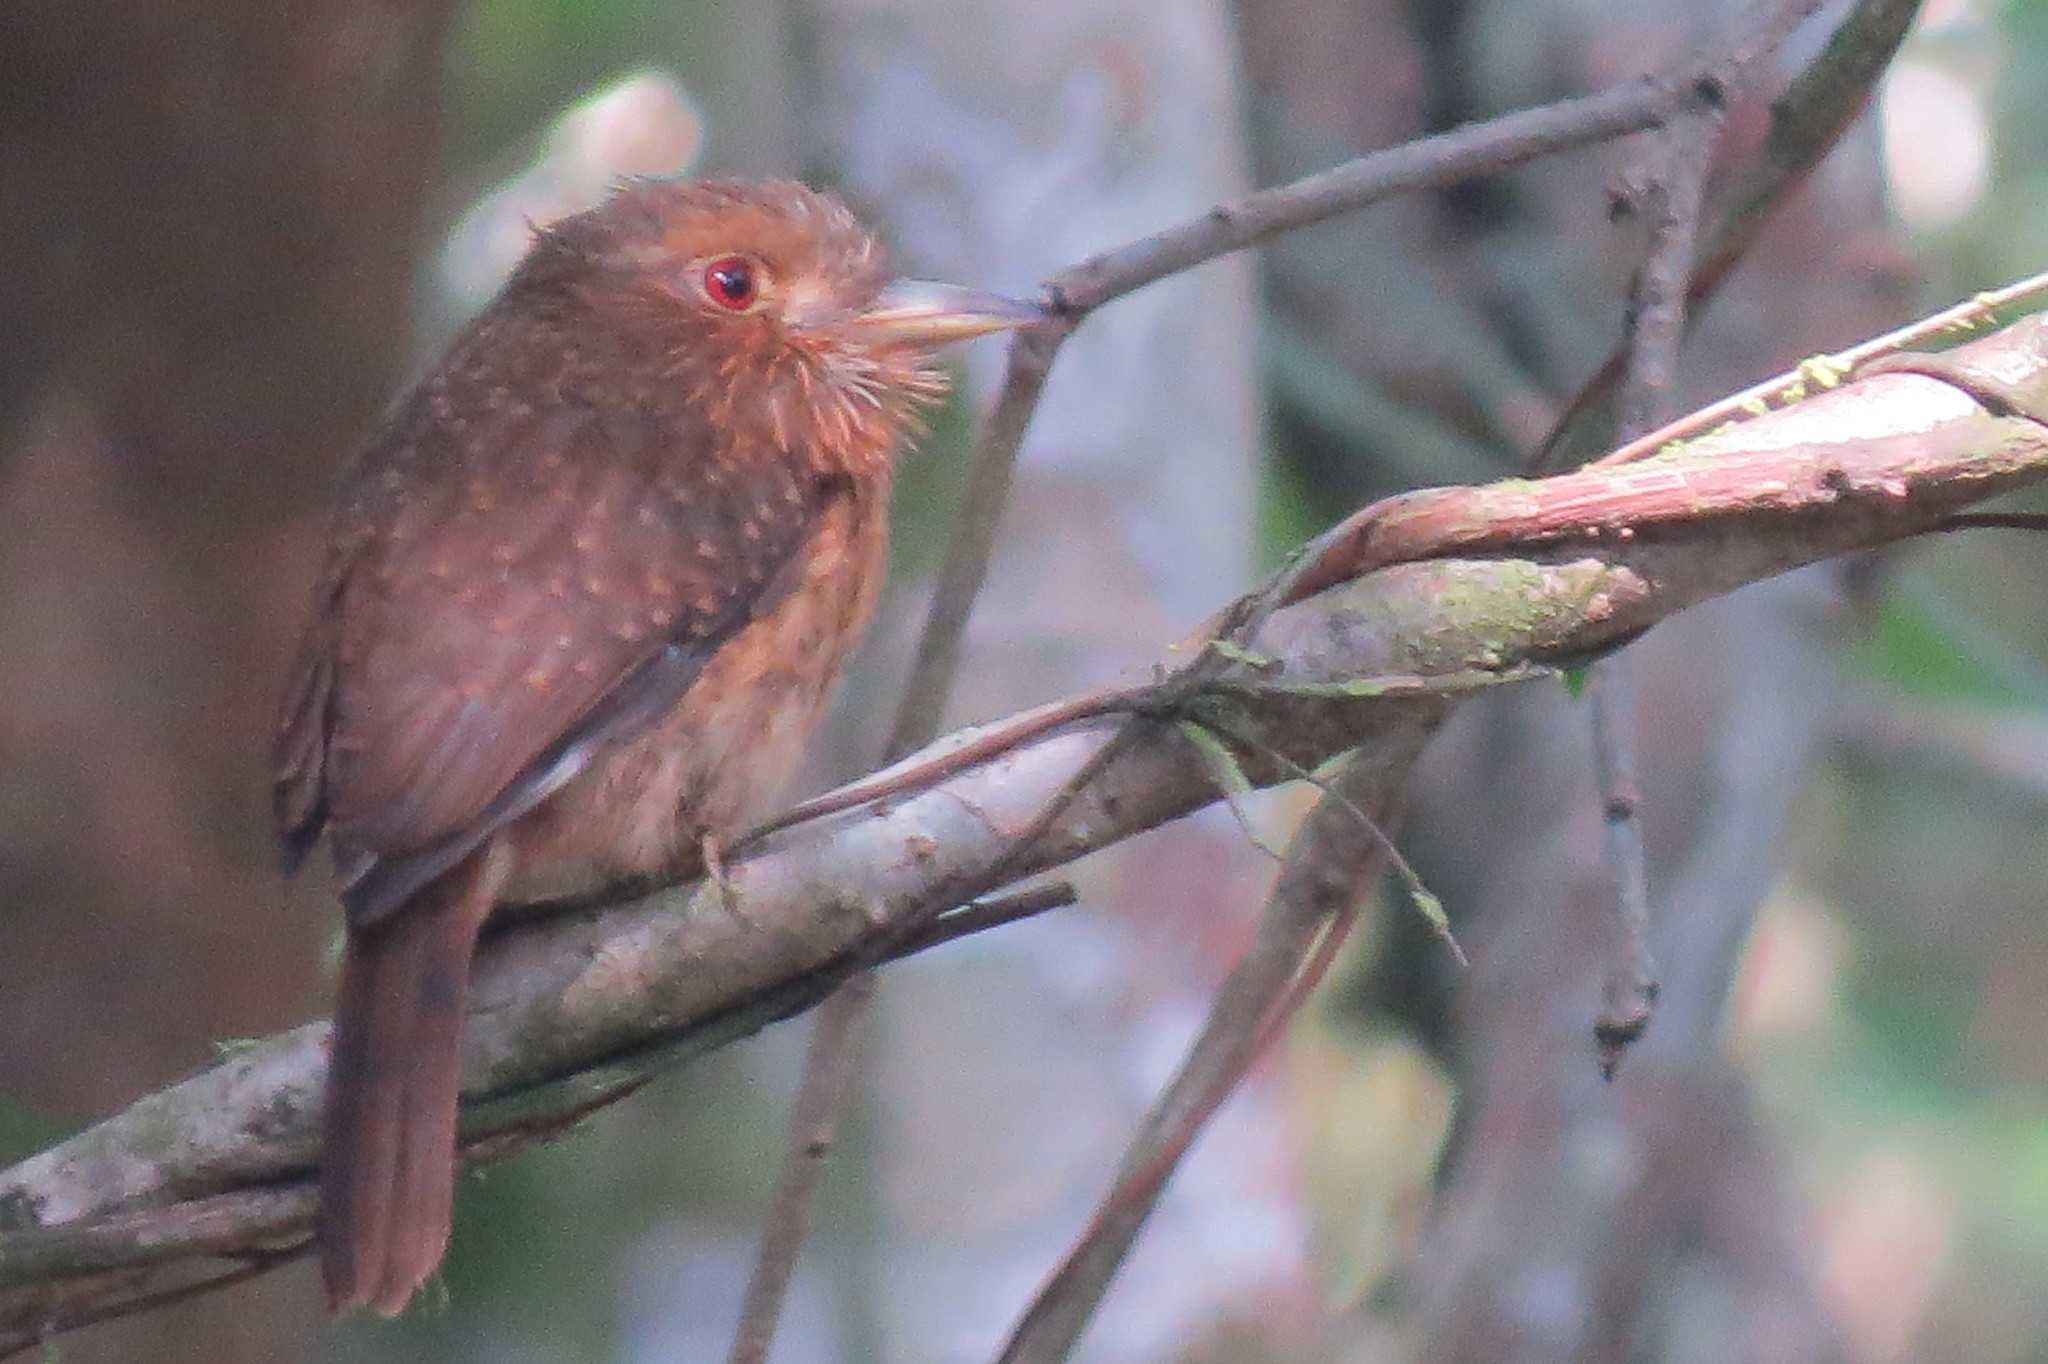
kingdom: Animalia
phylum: Chordata
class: Aves
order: Piciformes
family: Bucconidae
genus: Malacoptila
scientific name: Malacoptila panamensis
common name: White-whiskered puffbird
